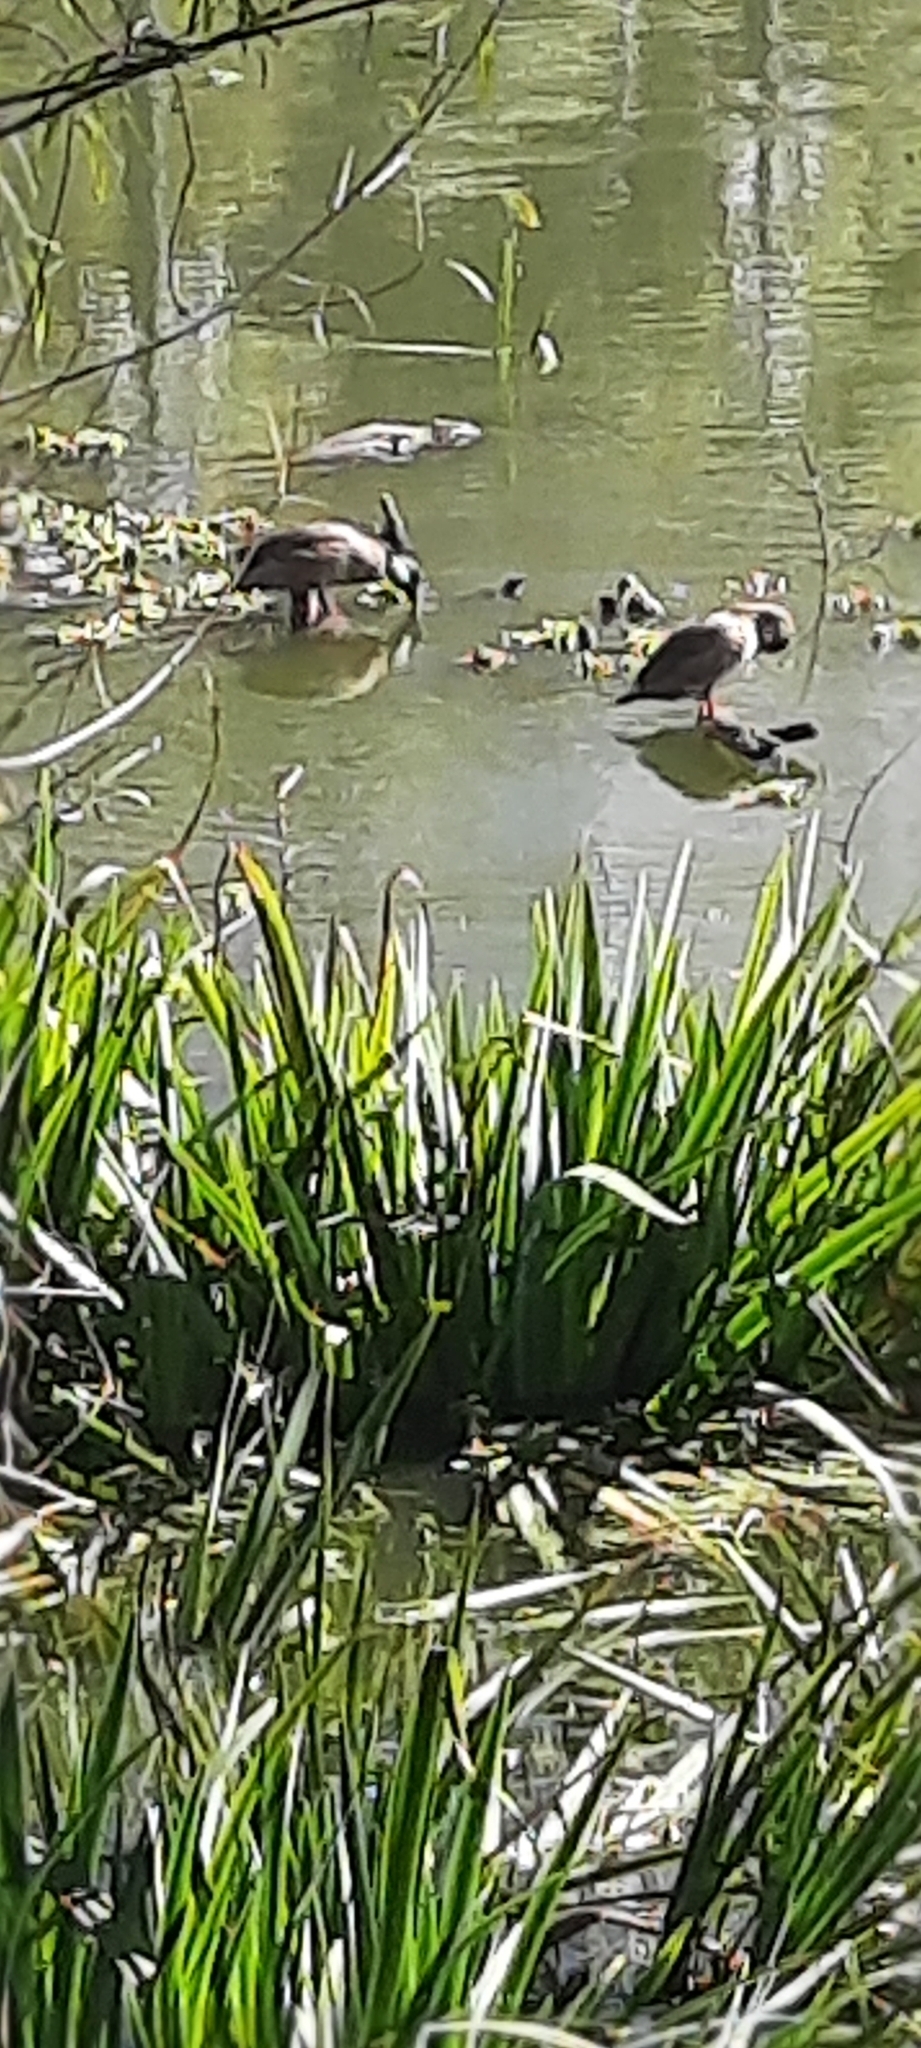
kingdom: Animalia
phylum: Chordata
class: Aves
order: Anseriformes
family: Anatidae
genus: Dendrocygna
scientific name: Dendrocygna viduata
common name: White-faced whistling duck
